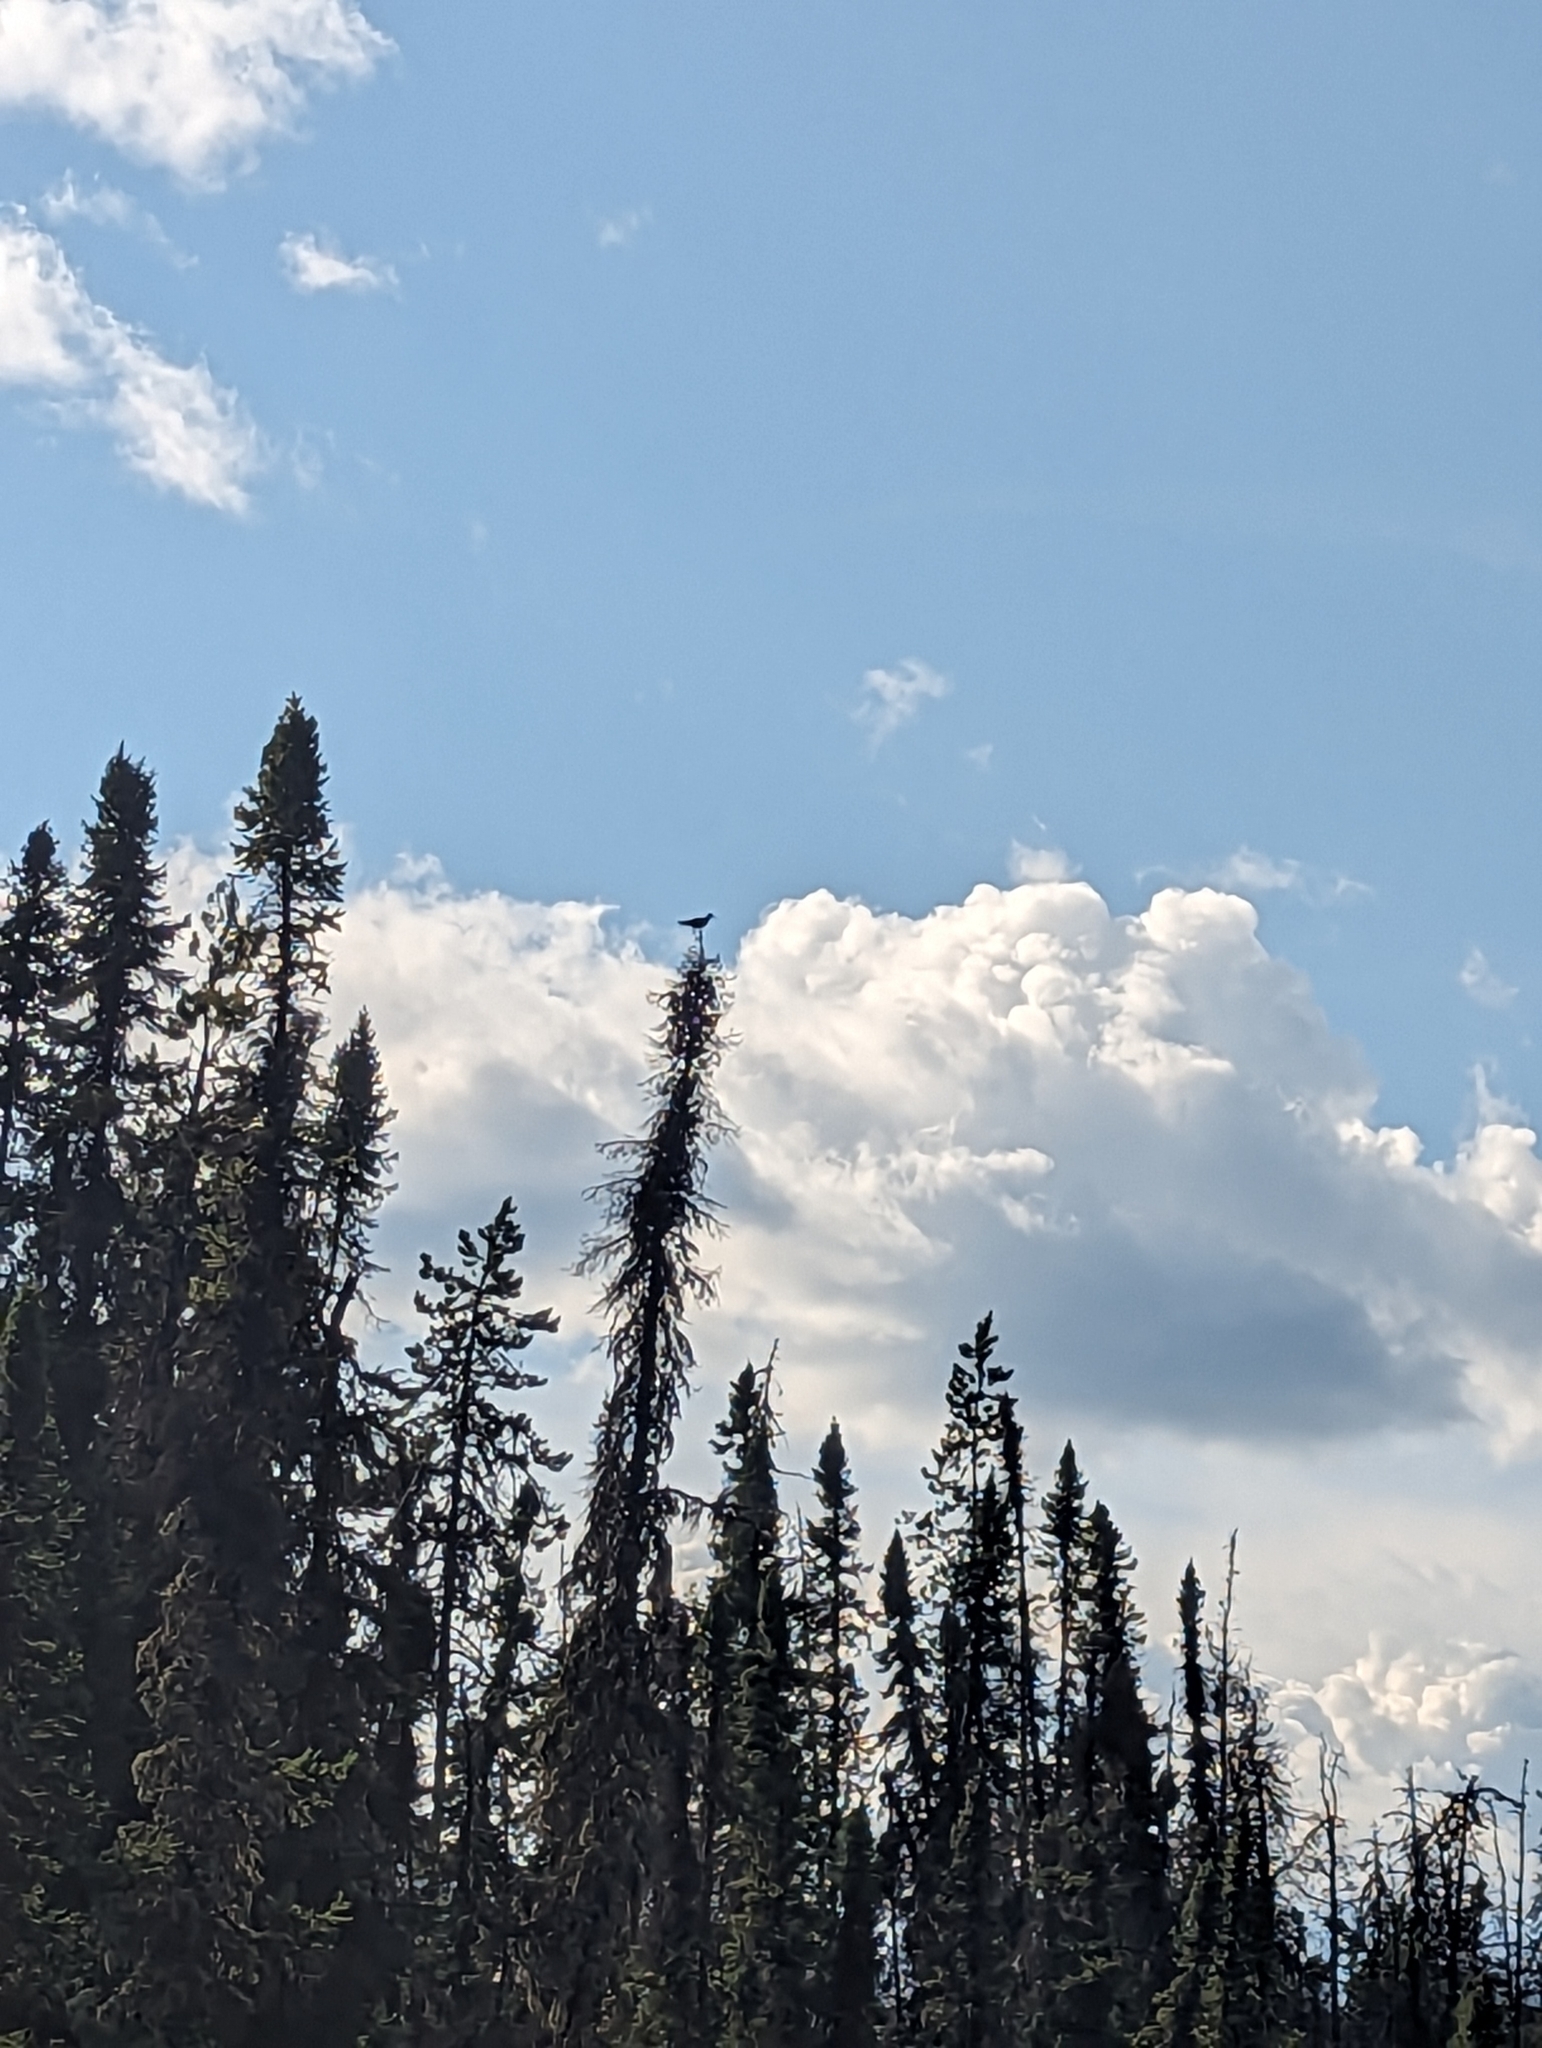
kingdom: Animalia
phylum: Chordata
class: Aves
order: Charadriiformes
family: Scolopacidae
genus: Tringa
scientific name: Tringa solitaria
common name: Solitary sandpiper
